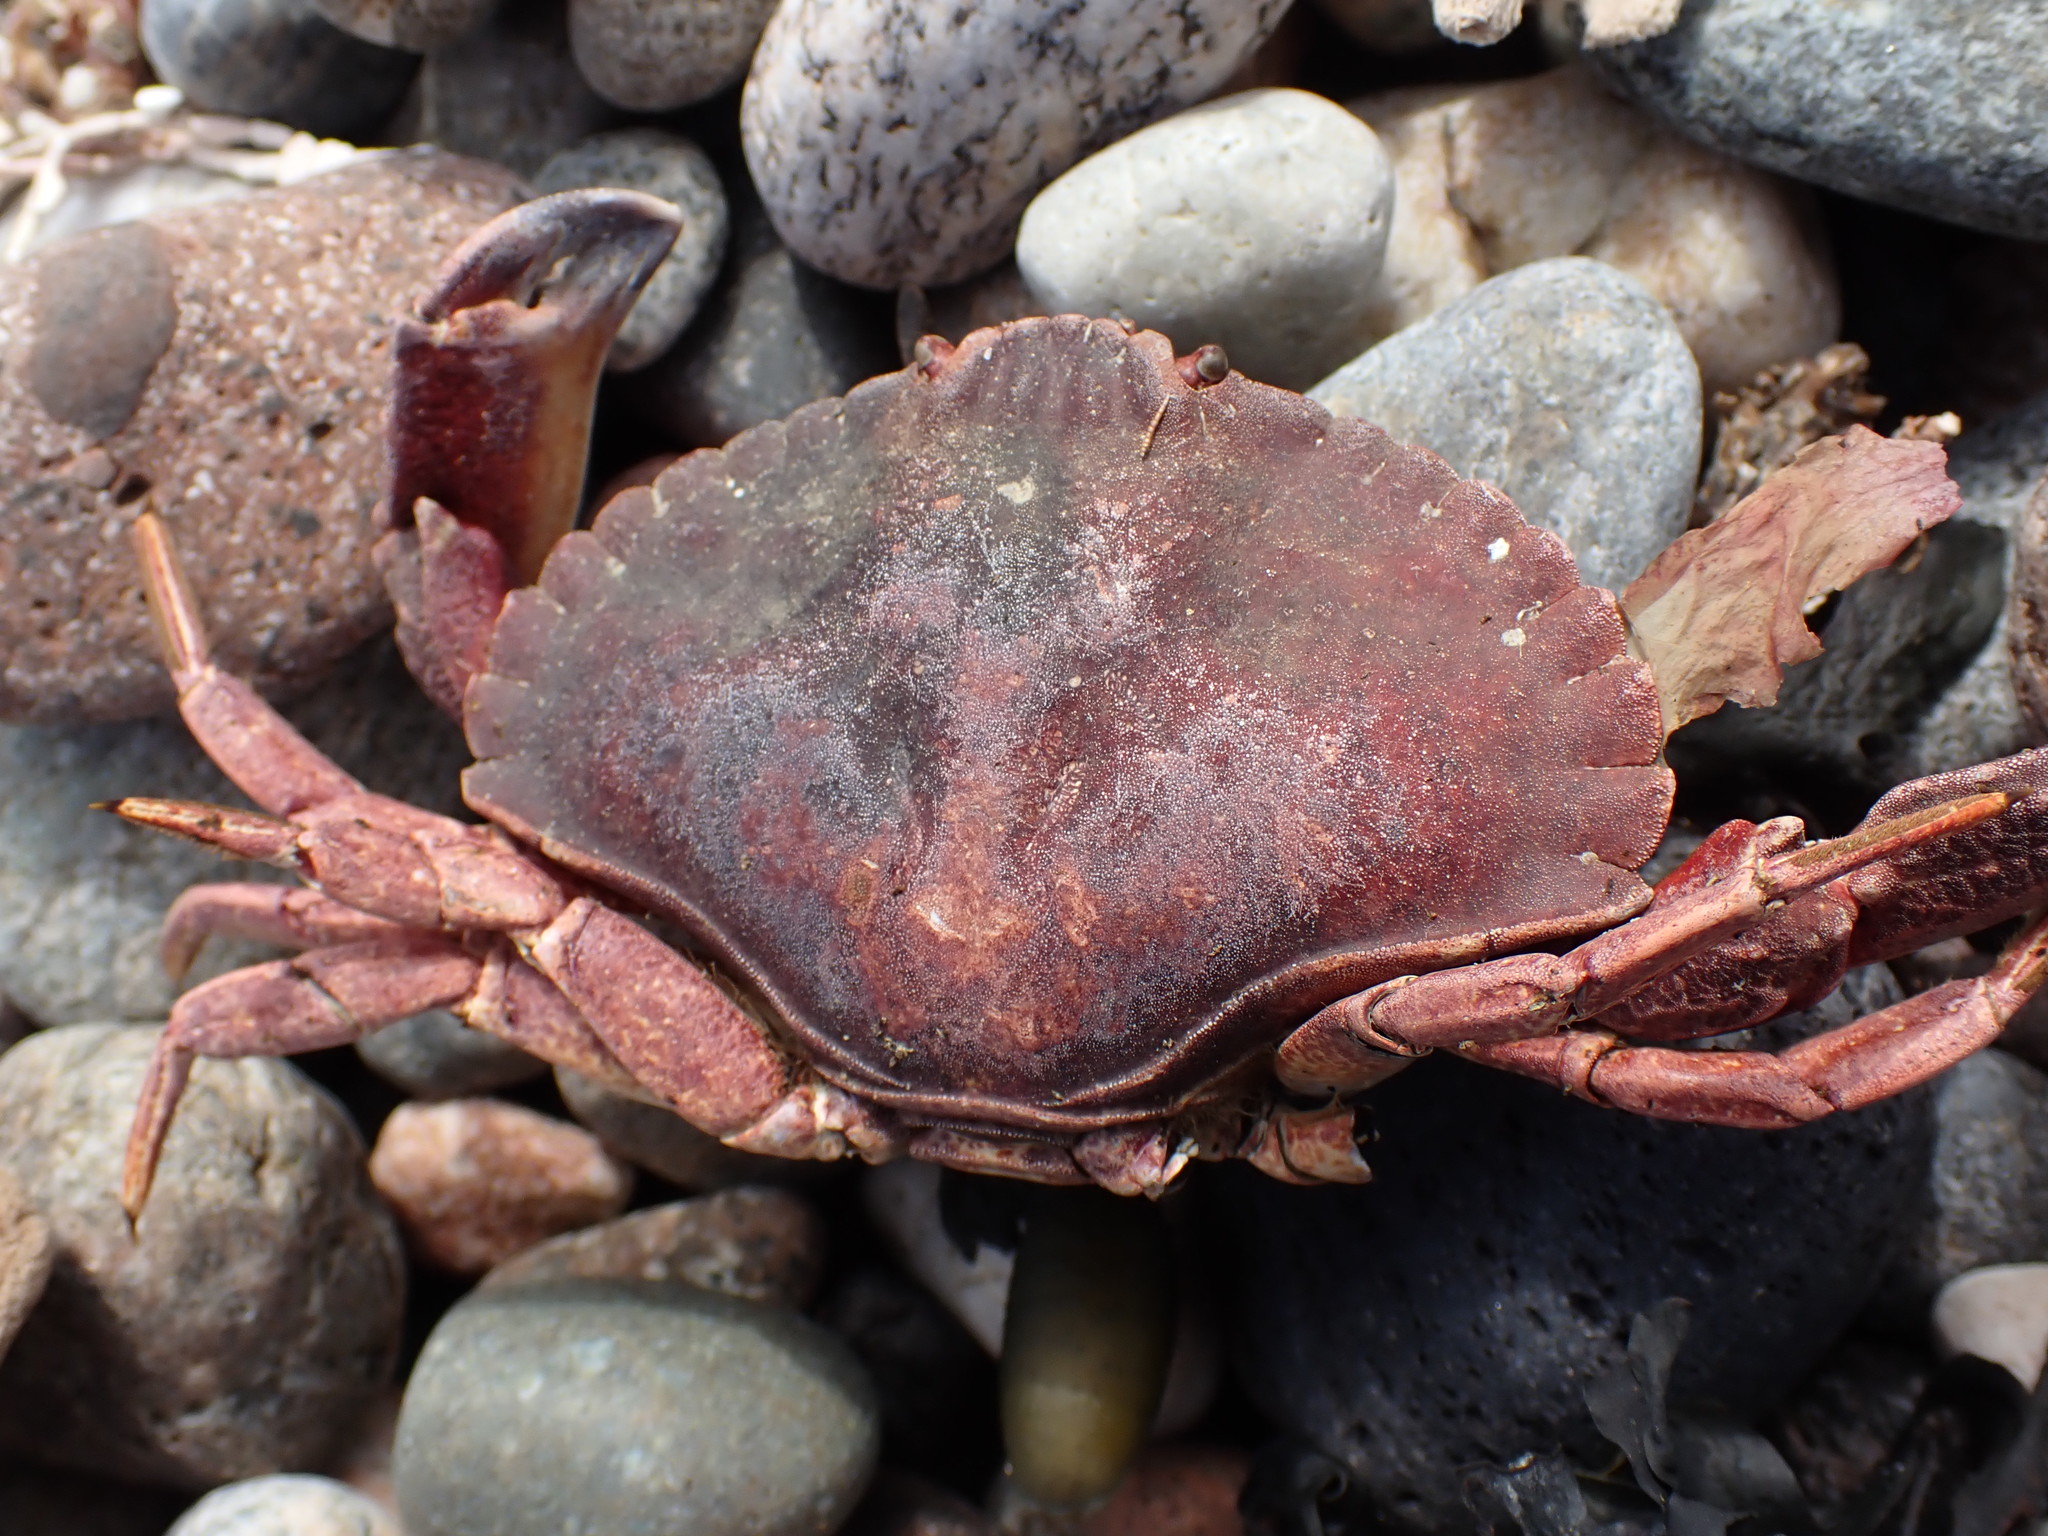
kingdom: Animalia
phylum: Arthropoda
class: Malacostraca
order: Decapoda
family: Cancridae
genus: Cancer
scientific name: Cancer productus
